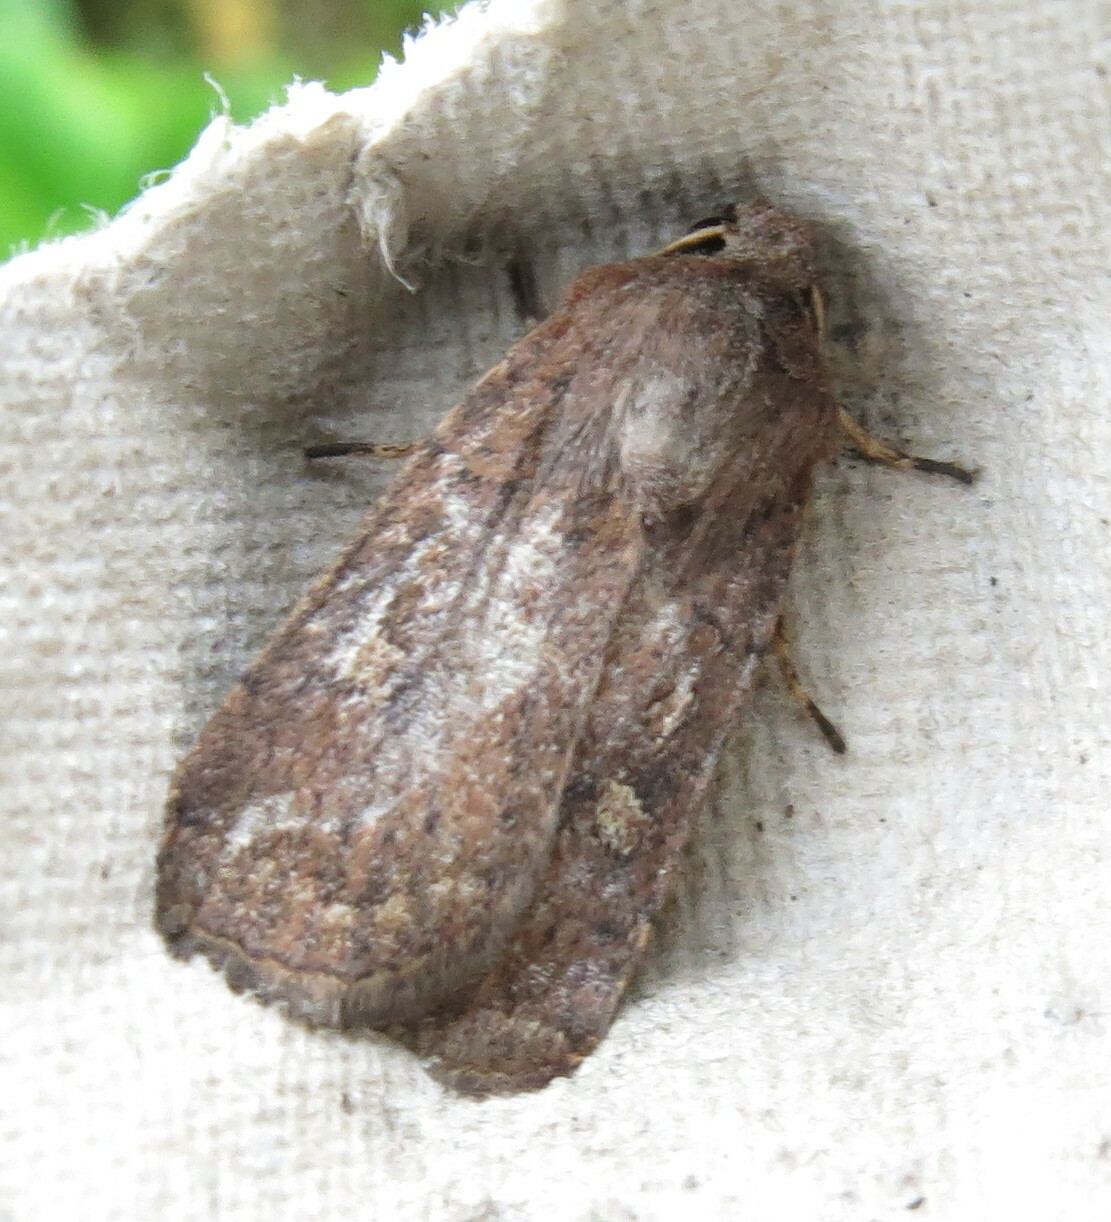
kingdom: Animalia
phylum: Arthropoda
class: Insecta
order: Lepidoptera
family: Noctuidae
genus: Xestia
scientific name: Xestia xanthographa
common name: Square-spot rustic
